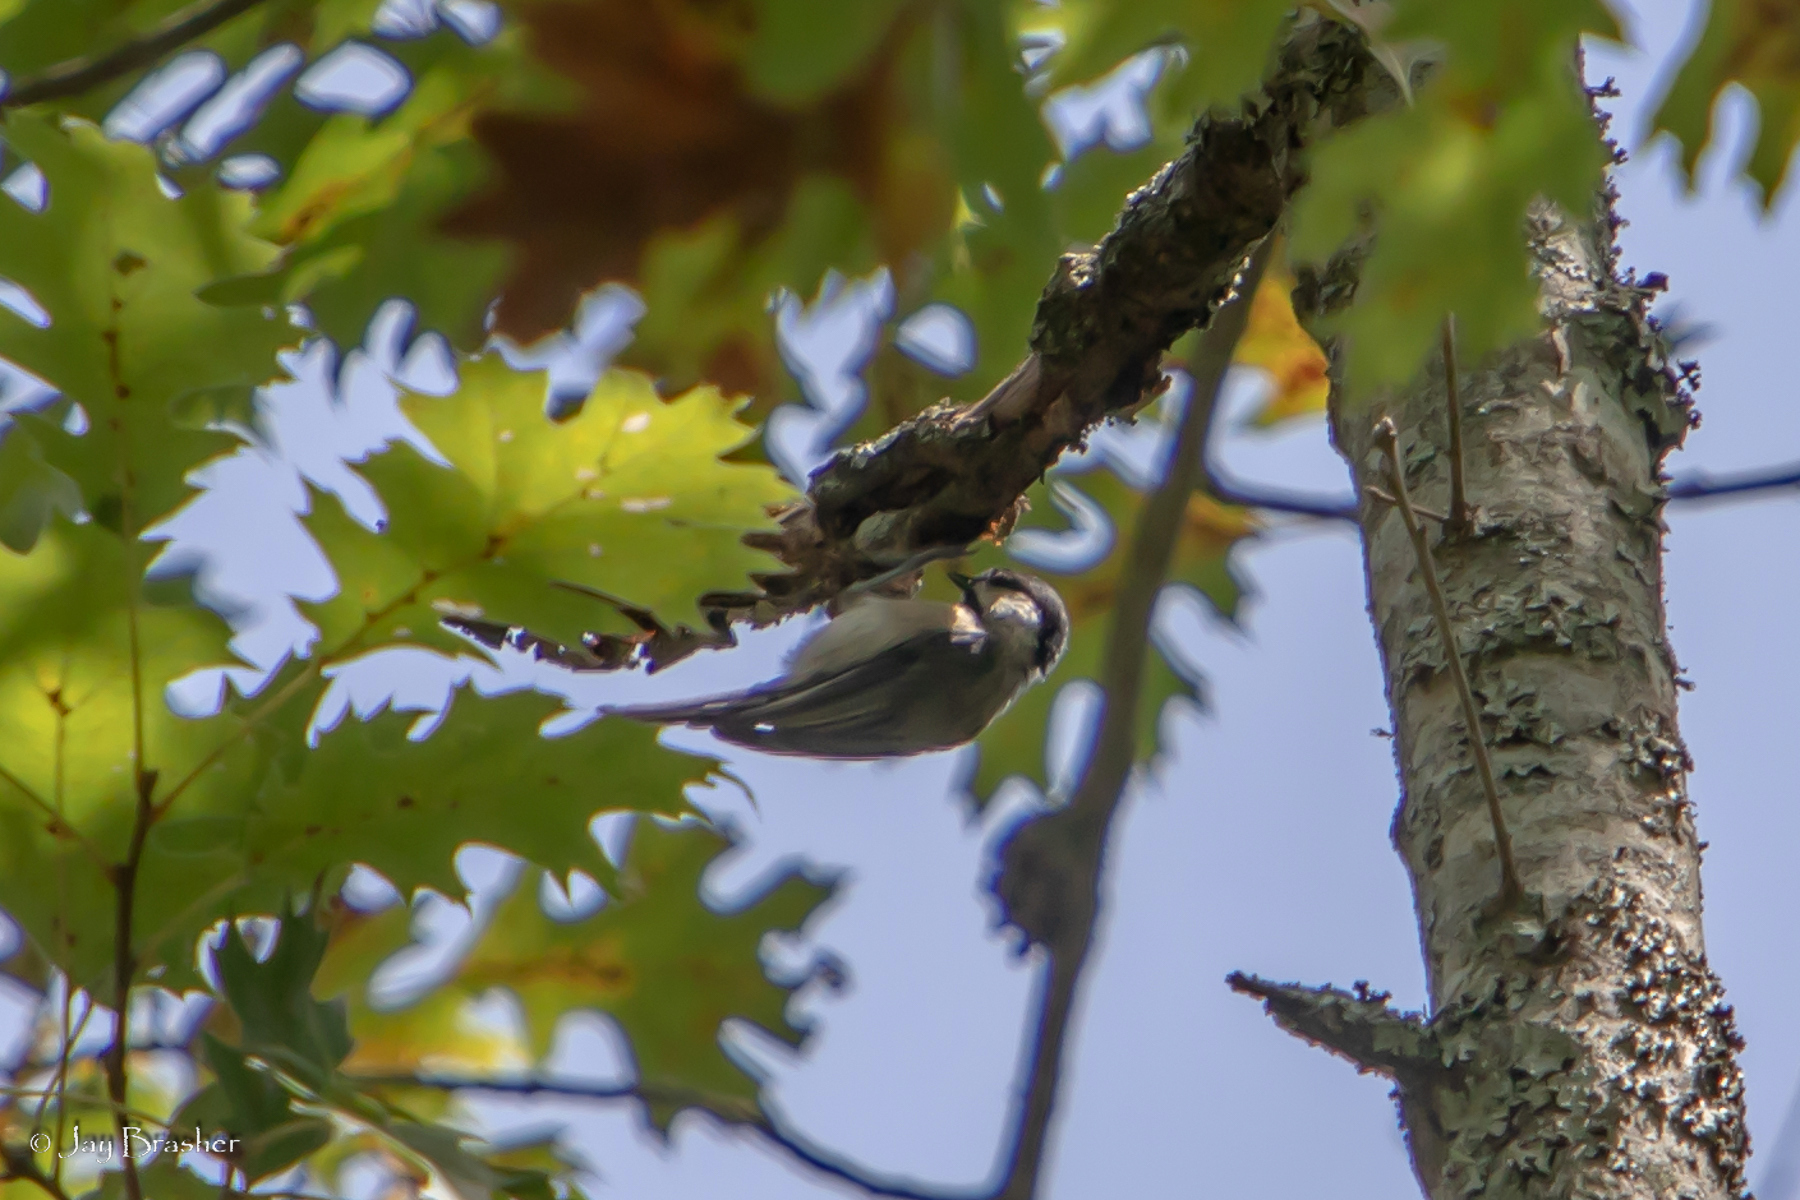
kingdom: Animalia
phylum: Chordata
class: Aves
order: Passeriformes
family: Paridae
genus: Poecile
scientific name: Poecile carolinensis
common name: Carolina chickadee
